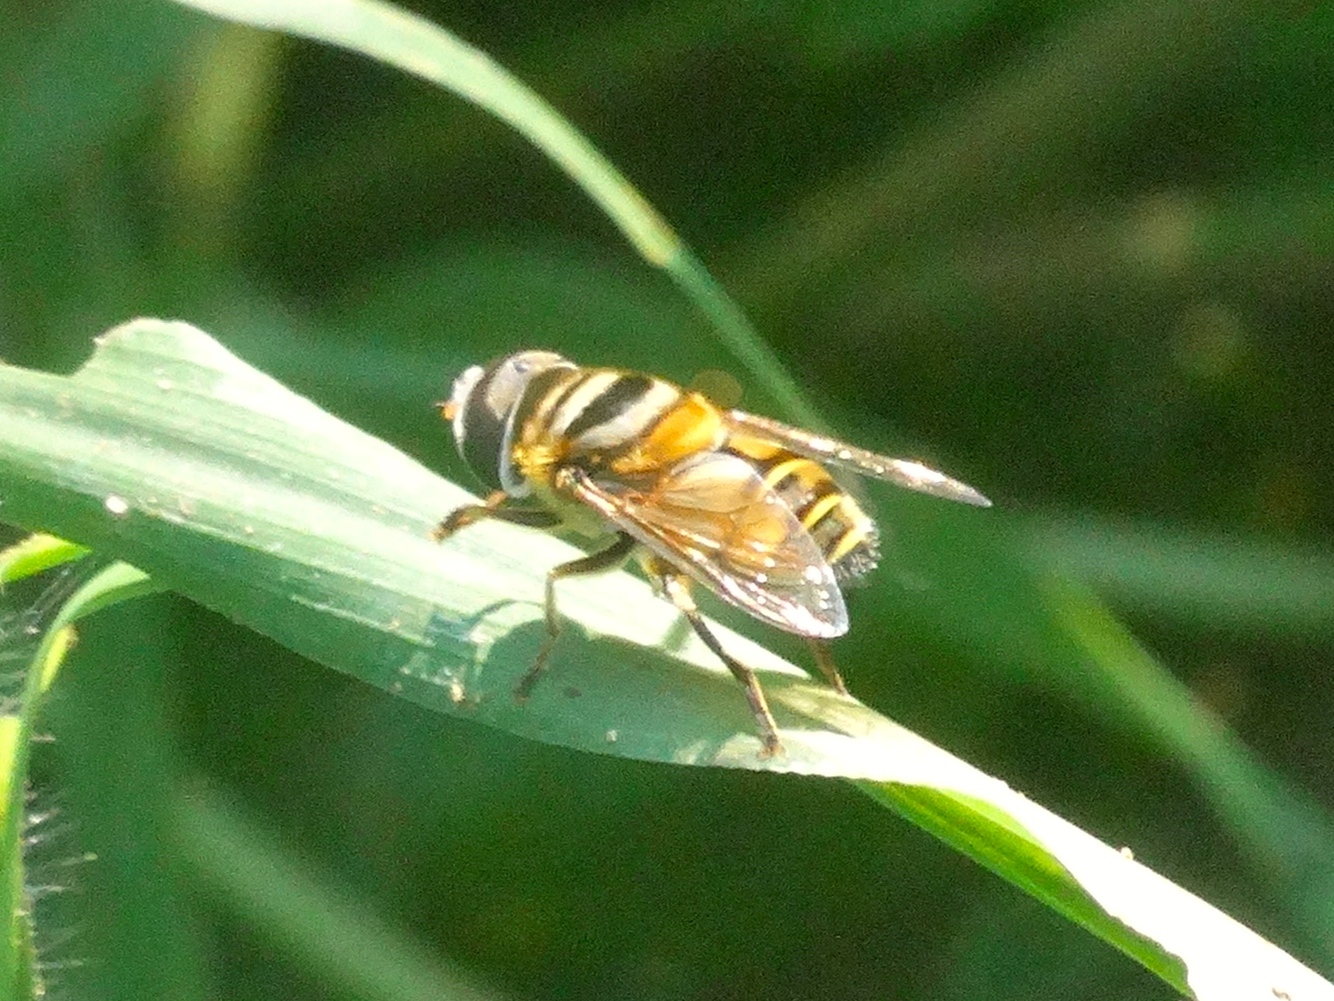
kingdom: Animalia
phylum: Arthropoda
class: Insecta
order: Diptera
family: Syrphidae
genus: Palpada
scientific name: Palpada vinetorum
